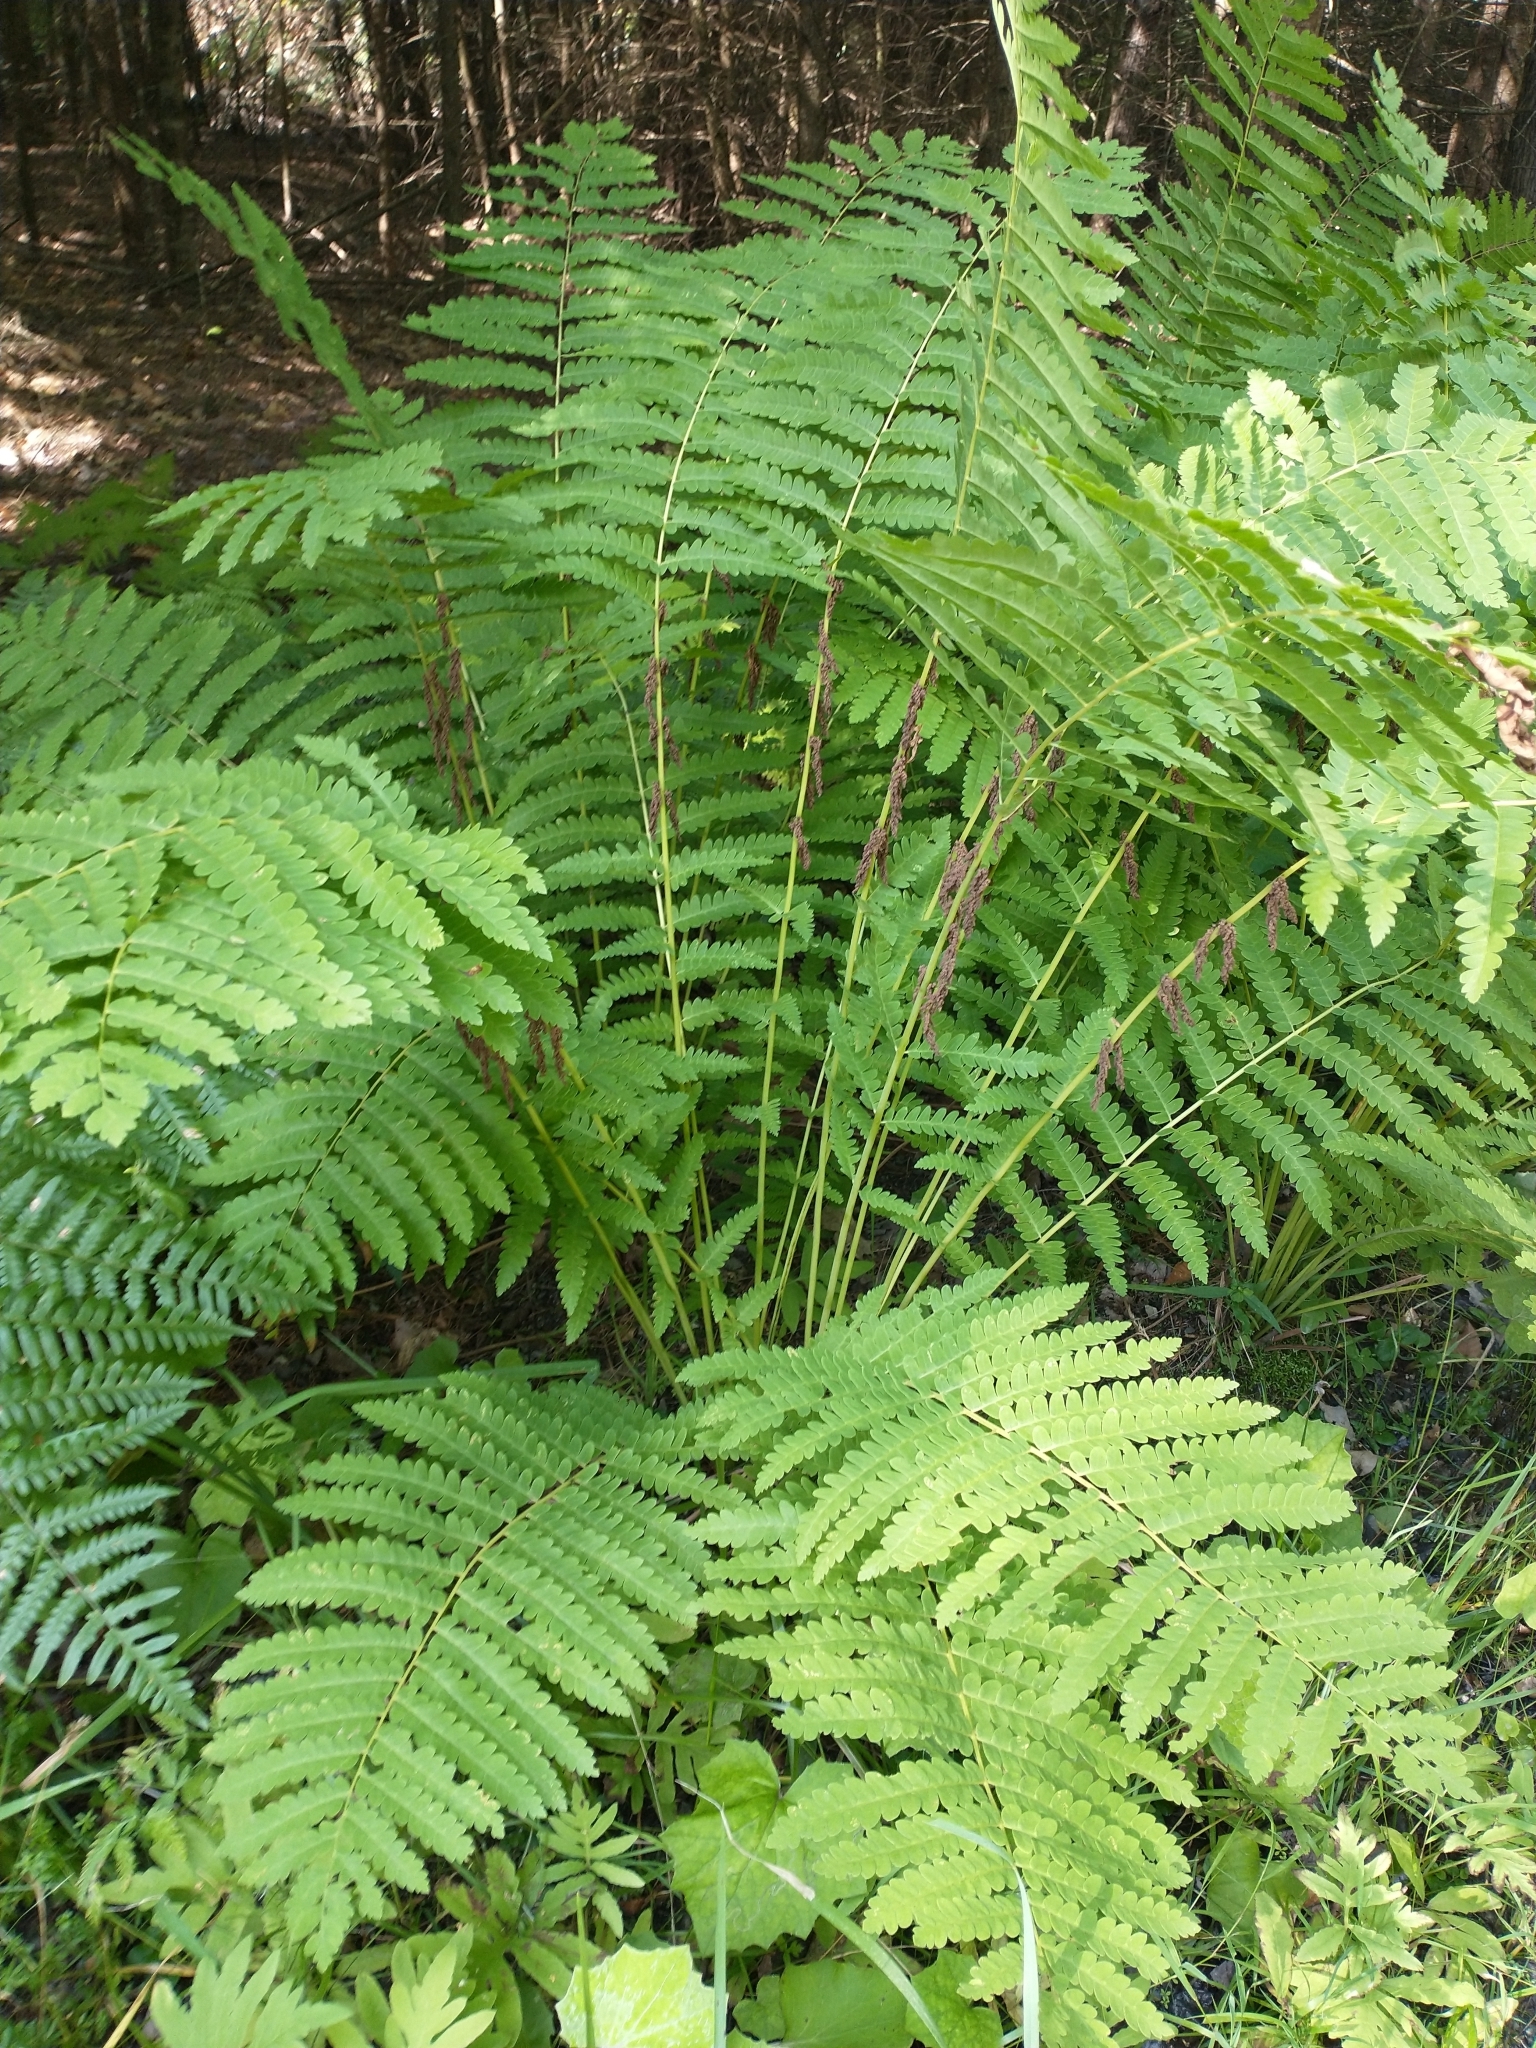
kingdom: Plantae
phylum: Tracheophyta
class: Polypodiopsida
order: Osmundales
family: Osmundaceae
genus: Claytosmunda
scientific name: Claytosmunda claytoniana
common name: Clayton's fern
